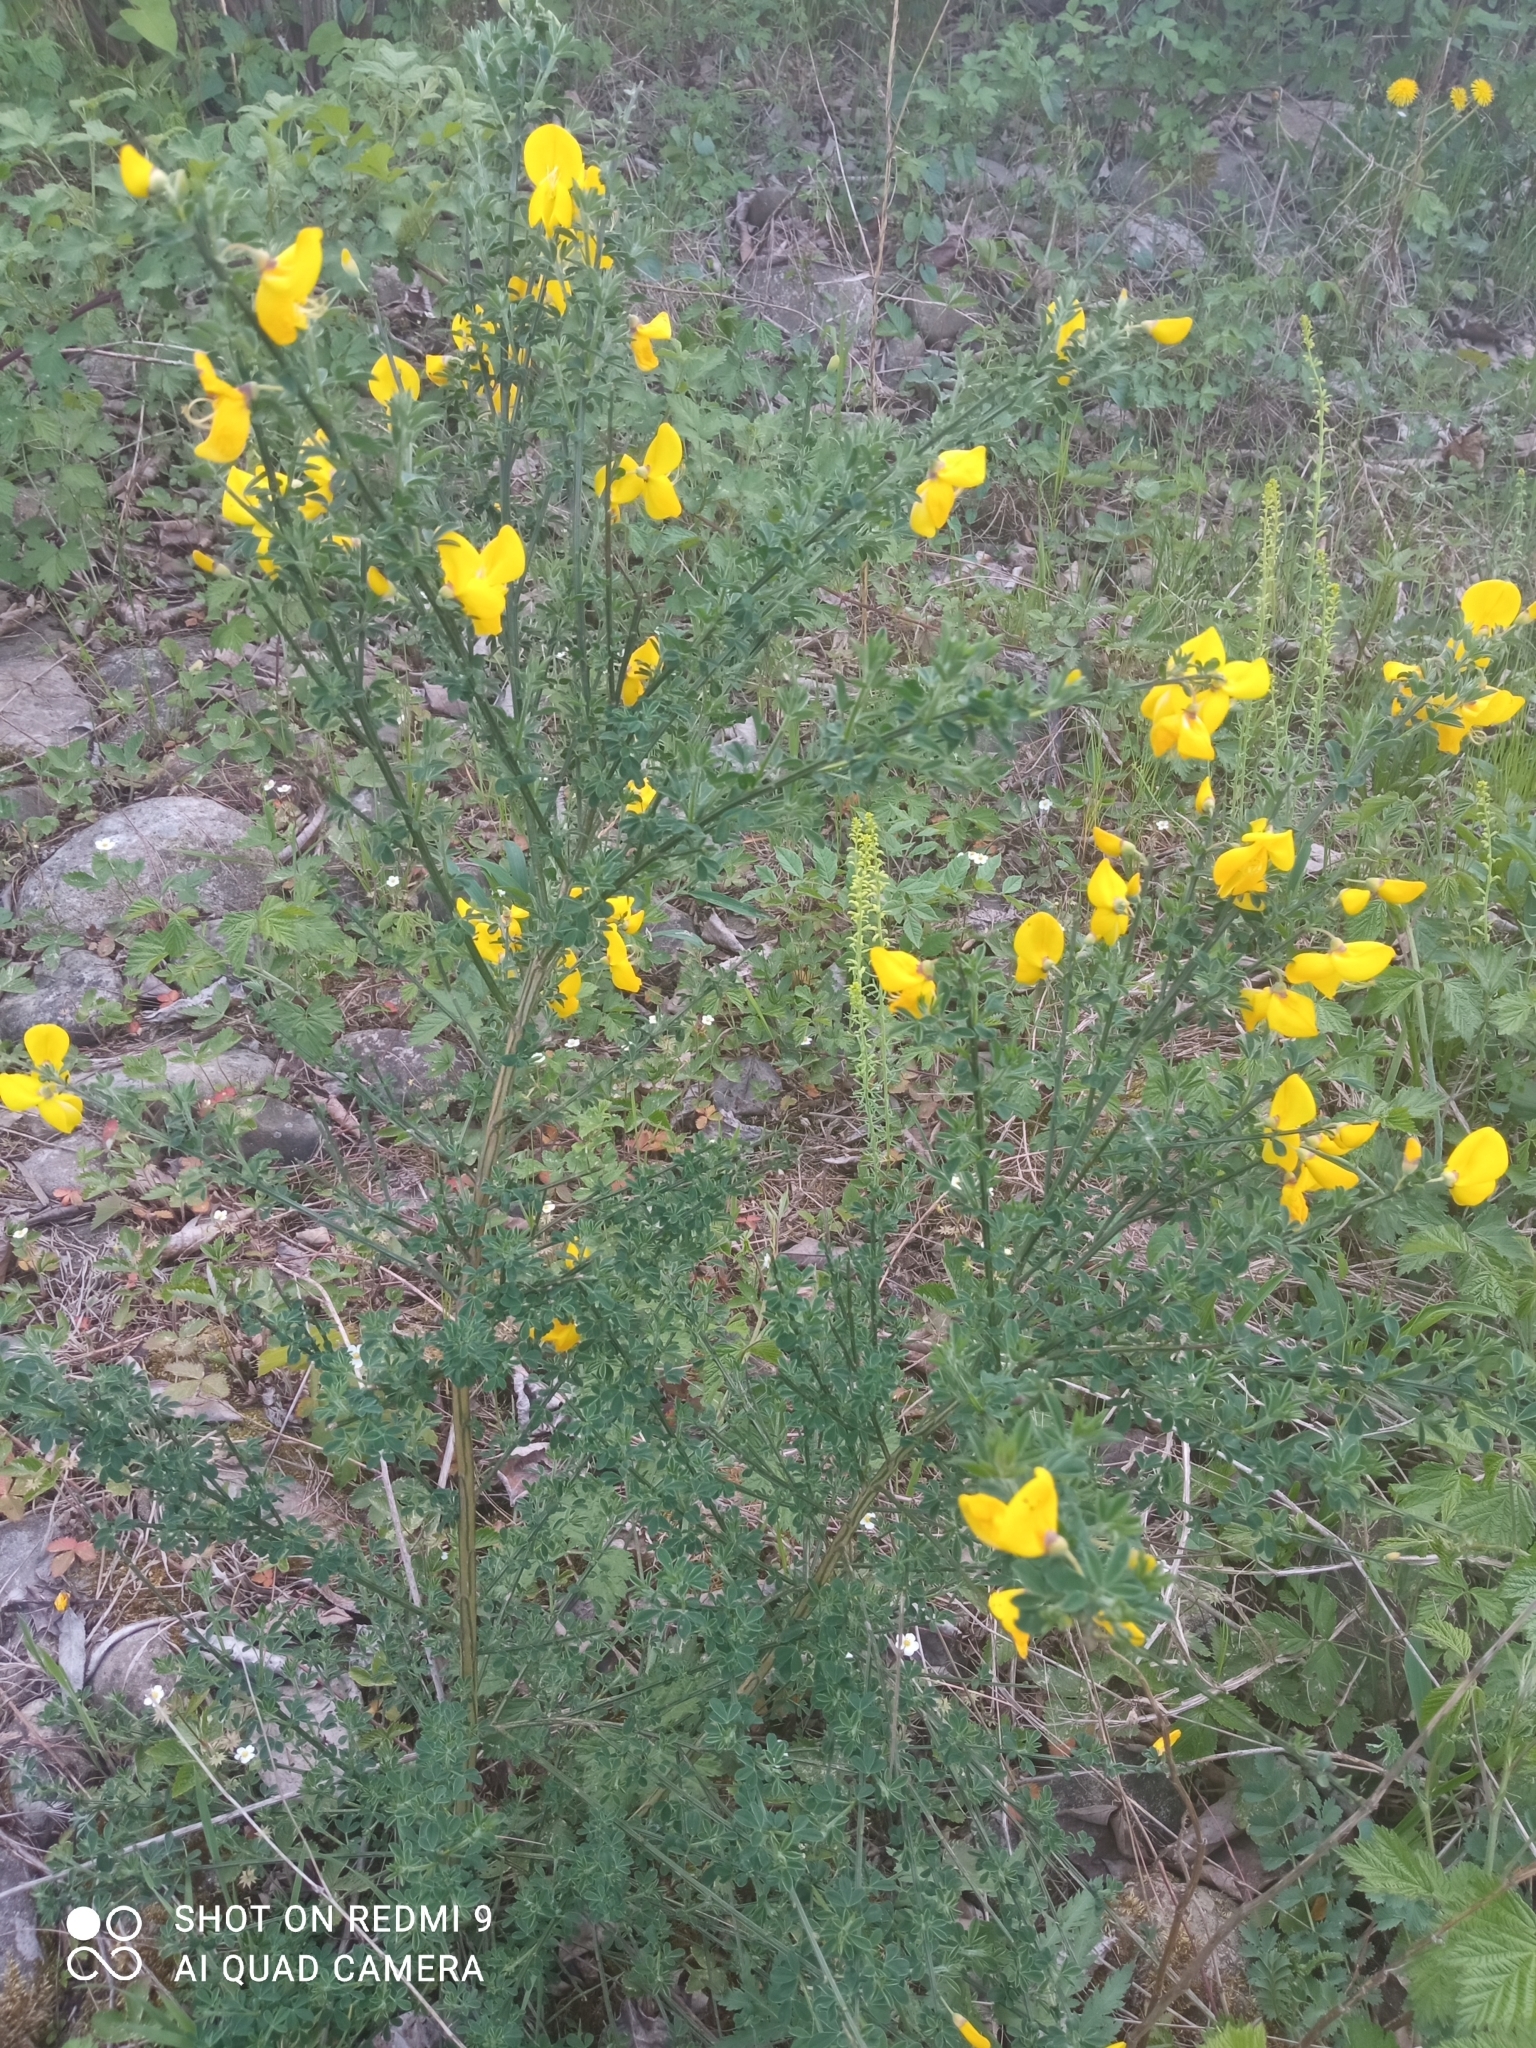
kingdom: Plantae
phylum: Tracheophyta
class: Magnoliopsida
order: Fabales
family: Fabaceae
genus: Cytisus
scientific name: Cytisus scoparius
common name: Scotch broom
